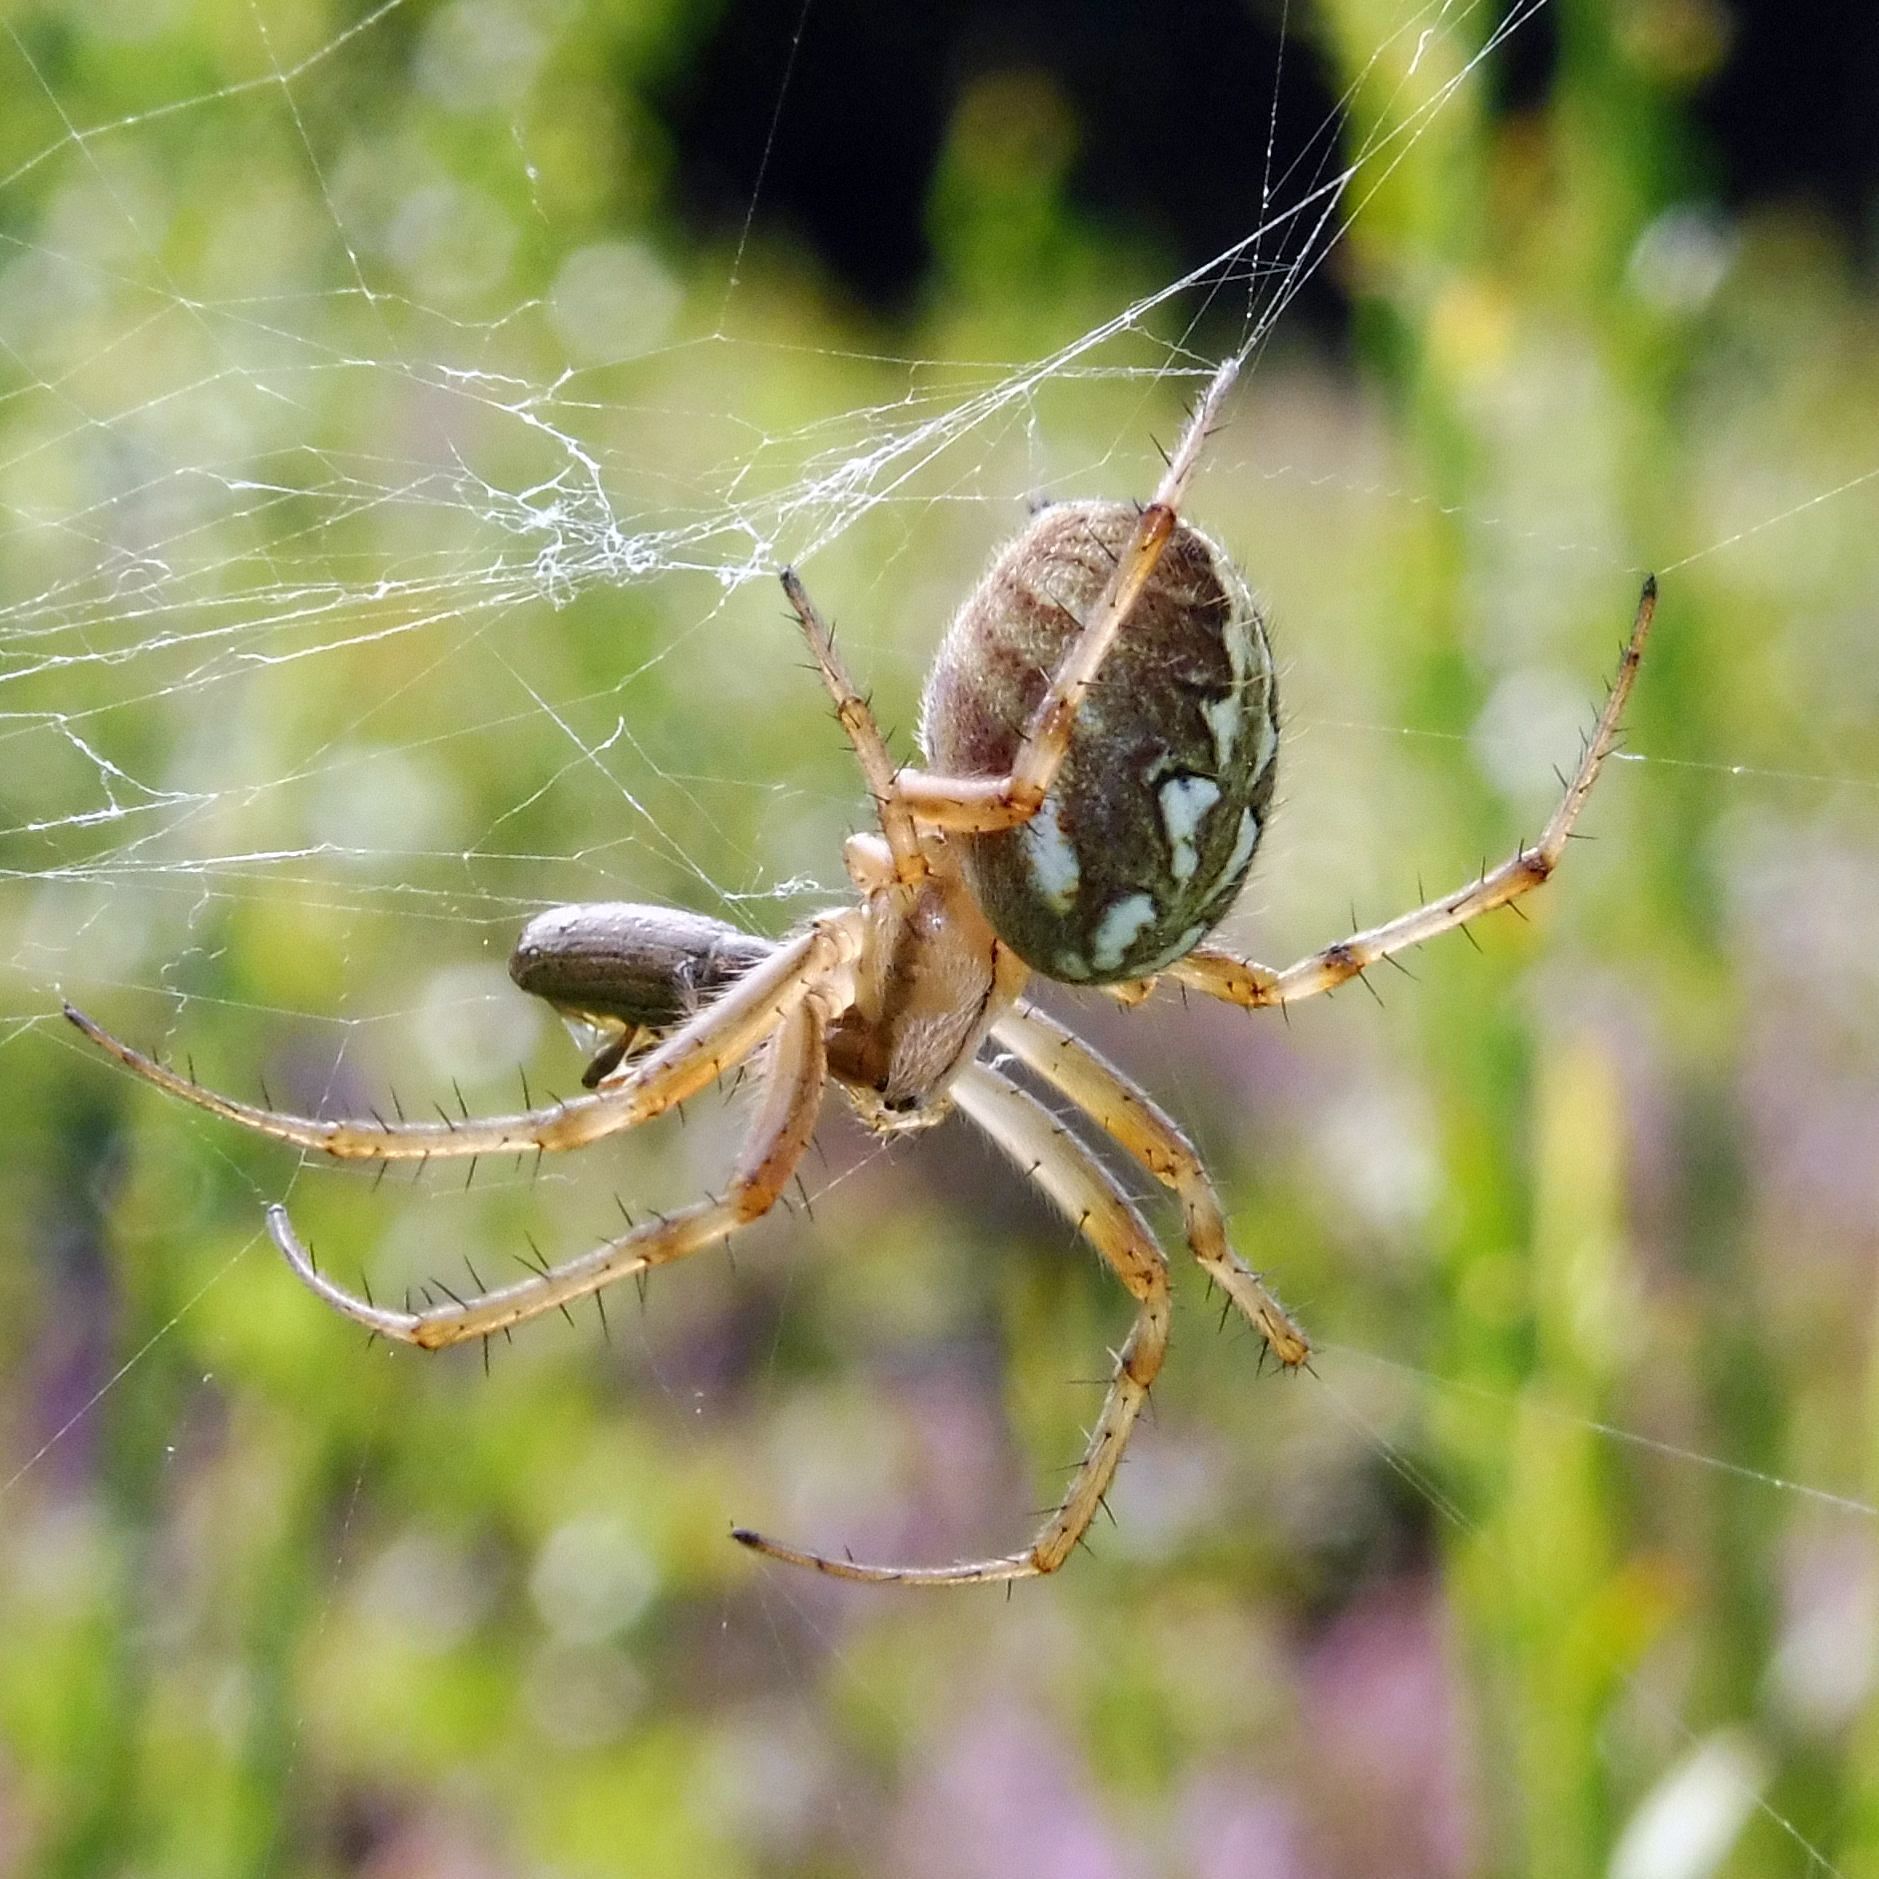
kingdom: Animalia
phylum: Arthropoda
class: Arachnida
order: Araneae
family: Araneidae
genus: Neoscona
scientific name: Neoscona adianta
